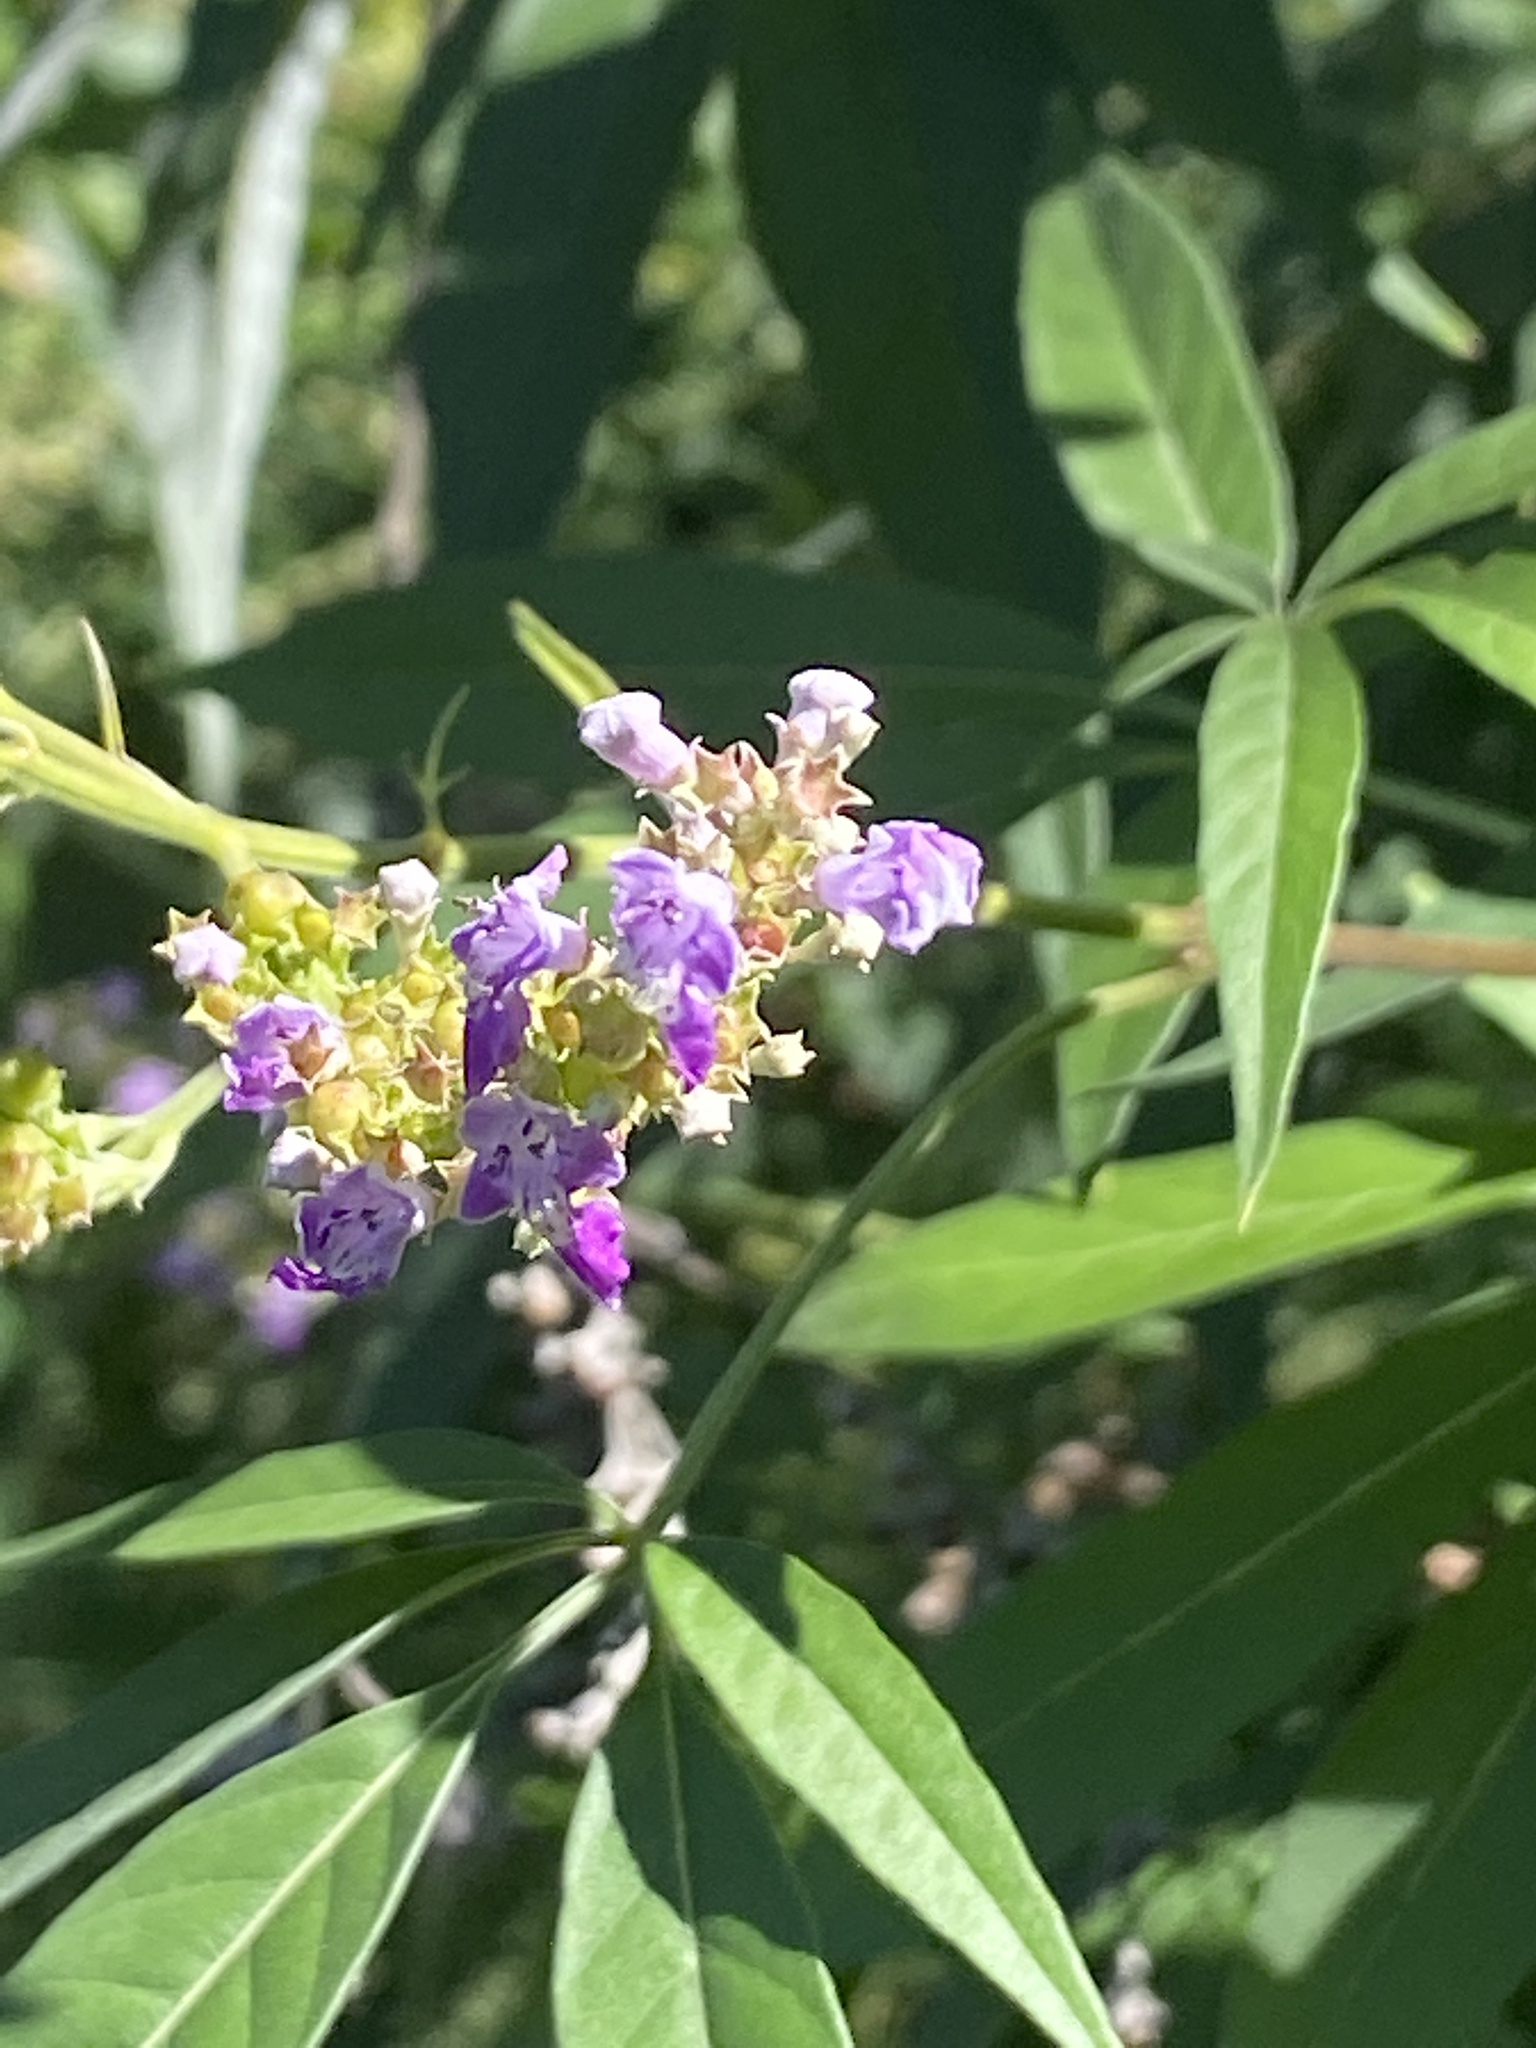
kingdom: Plantae
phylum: Tracheophyta
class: Magnoliopsida
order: Lamiales
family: Lamiaceae
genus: Vitex
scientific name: Vitex negundo
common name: Chinese chastetree
